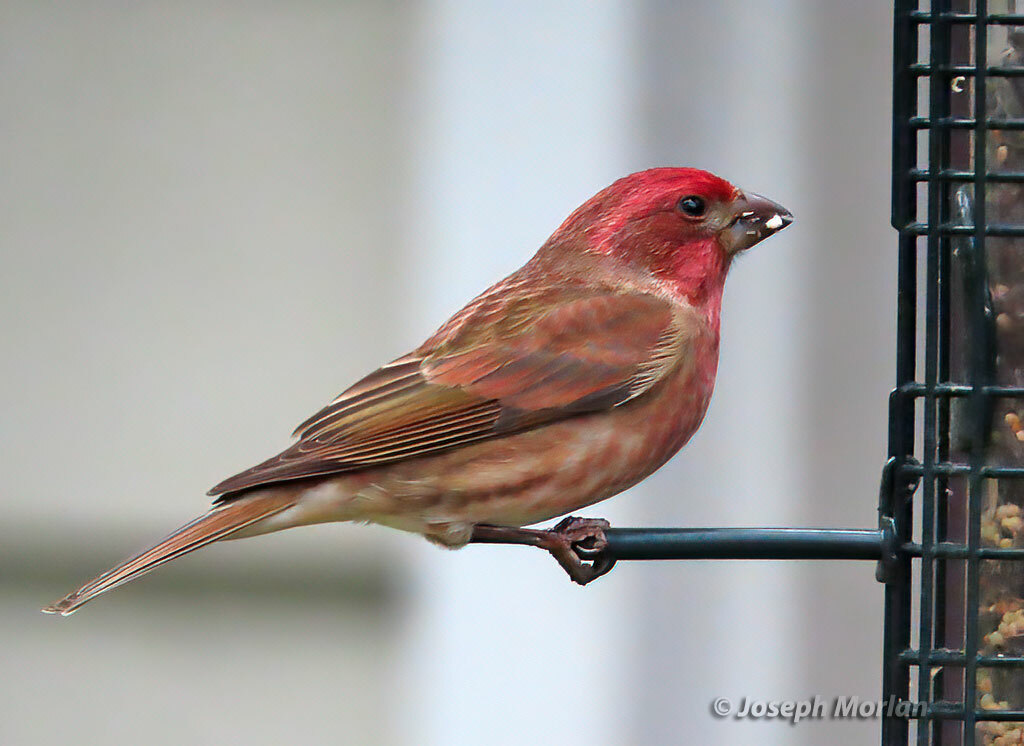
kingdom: Animalia
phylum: Chordata
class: Aves
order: Passeriformes
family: Fringillidae
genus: Haemorhous
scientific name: Haemorhous purpureus
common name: Purple finch
